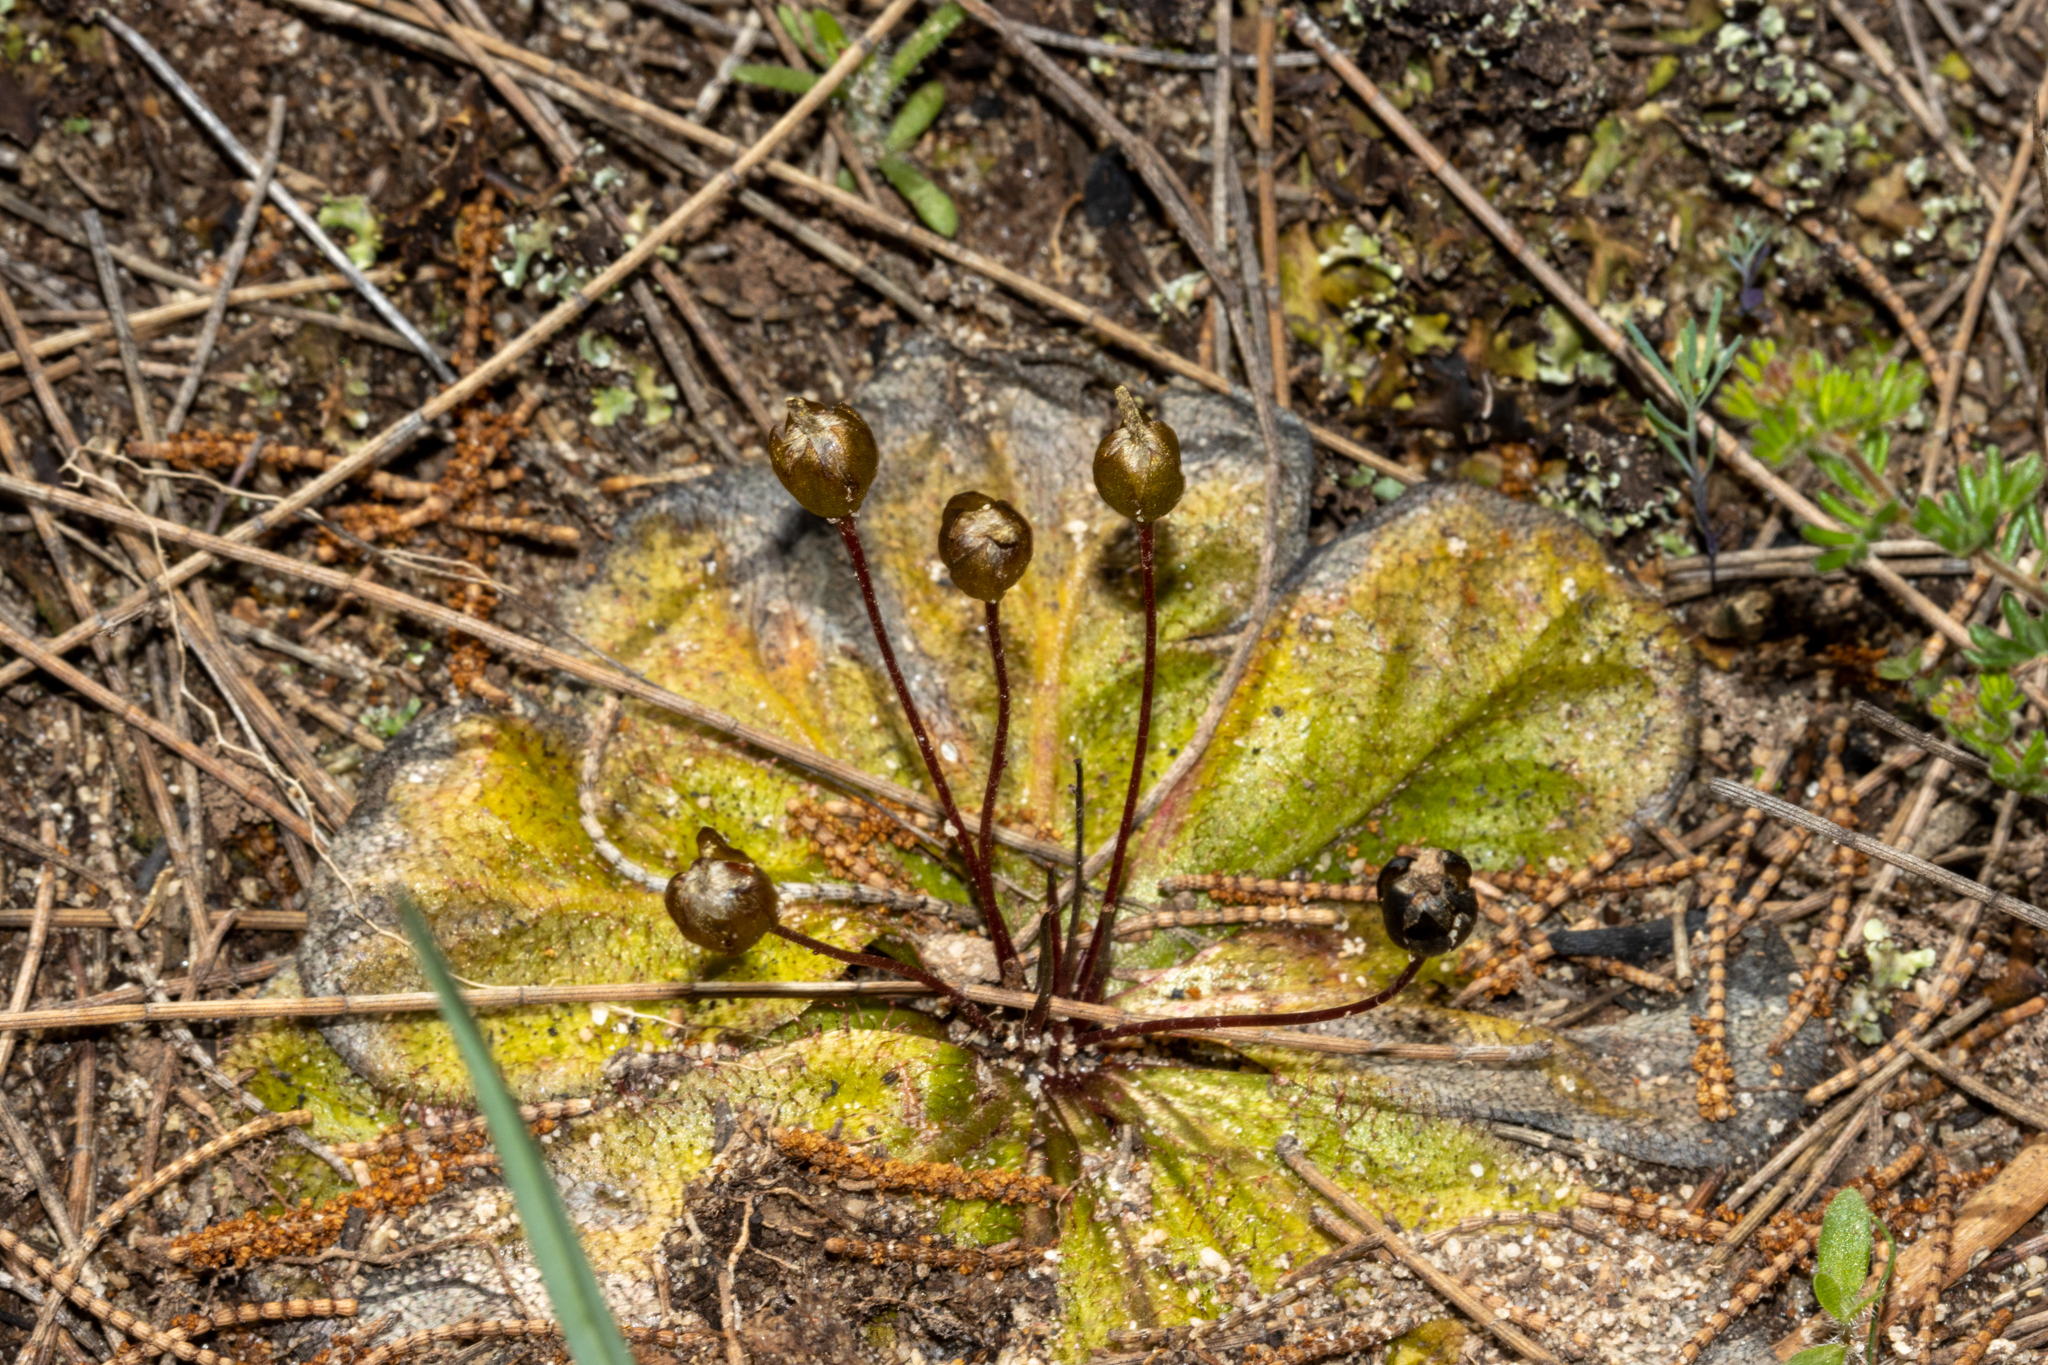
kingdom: Plantae
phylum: Tracheophyta
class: Magnoliopsida
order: Caryophyllales
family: Droseraceae
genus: Drosera
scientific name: Drosera macrophylla
